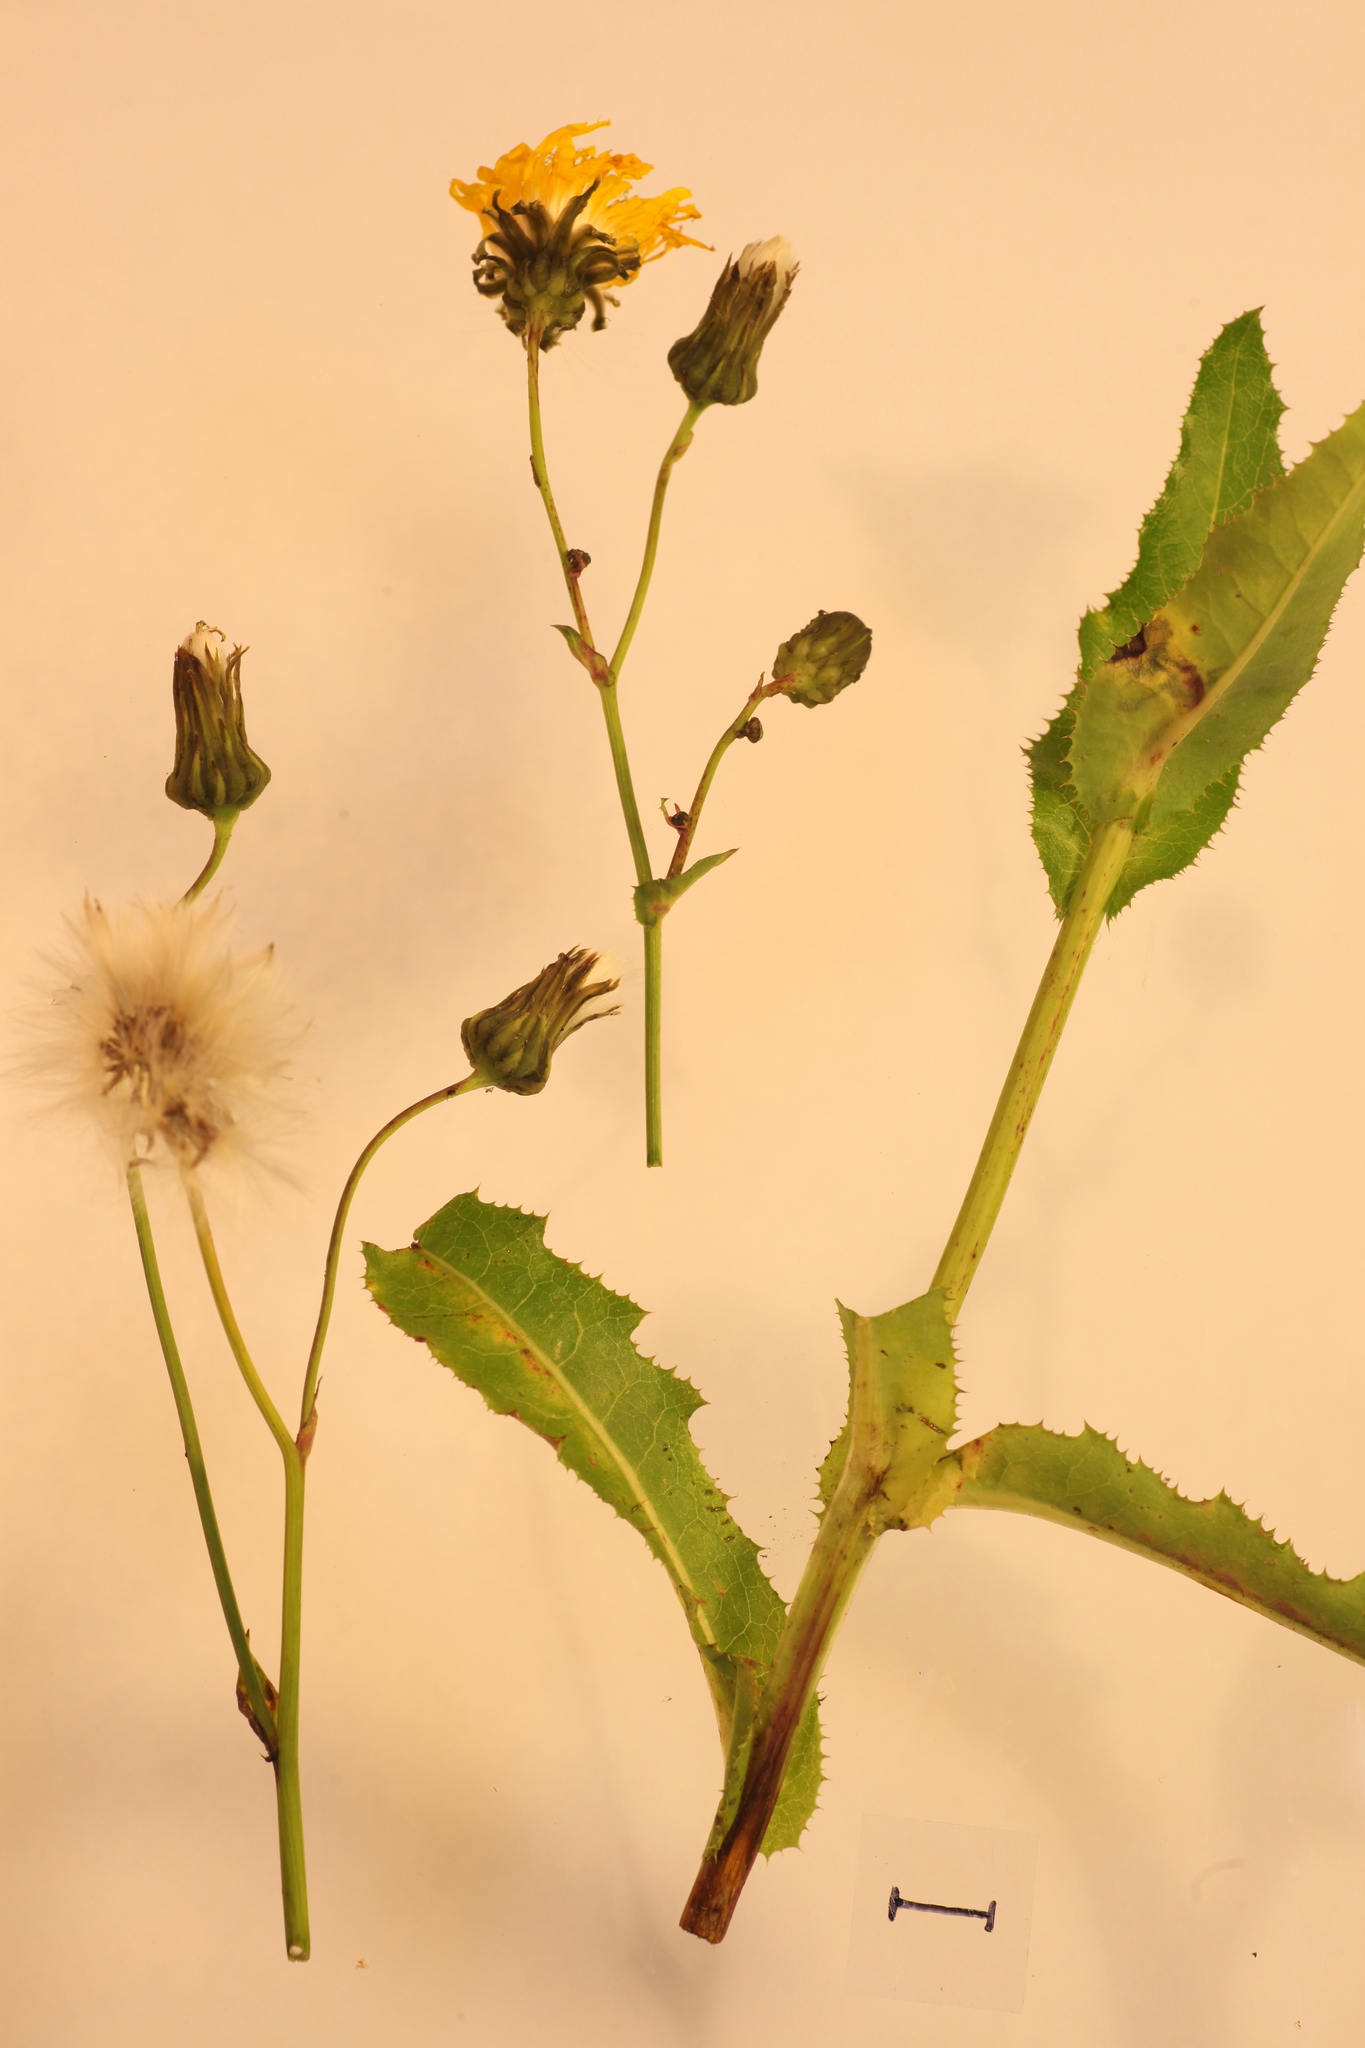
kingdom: Plantae
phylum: Tracheophyta
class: Magnoliopsida
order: Asterales
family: Asteraceae
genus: Sonchus
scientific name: Sonchus arvensis
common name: Perennial sow-thistle
